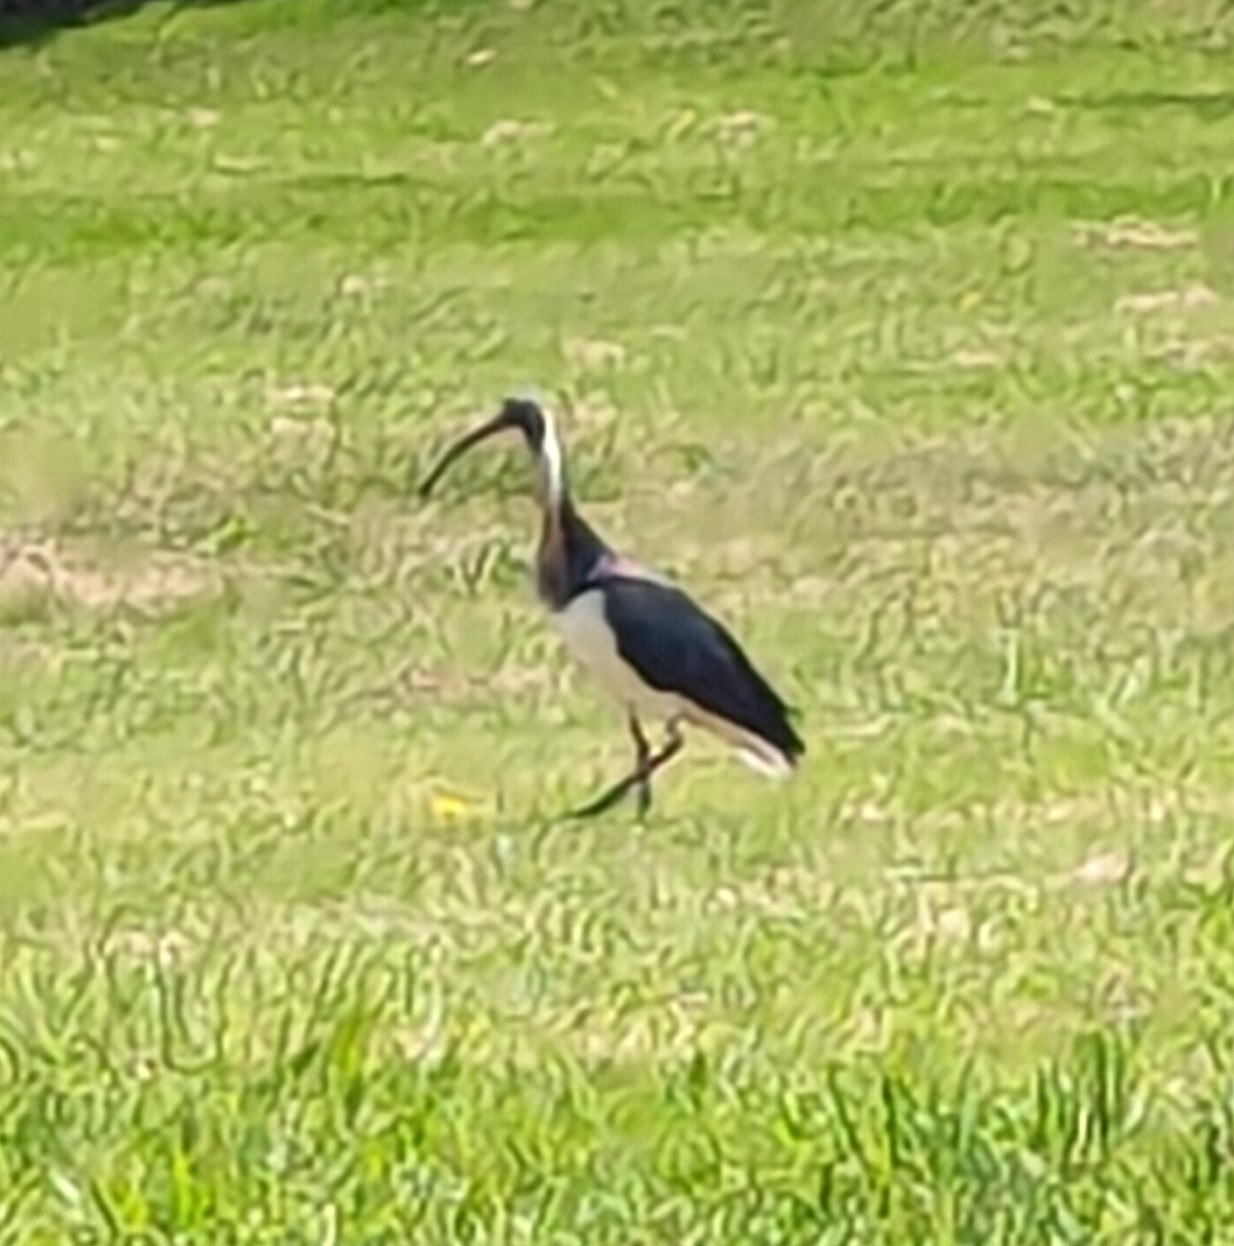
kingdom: Animalia
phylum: Chordata
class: Aves
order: Pelecaniformes
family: Threskiornithidae
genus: Threskiornis
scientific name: Threskiornis spinicollis
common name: Straw-necked ibis
